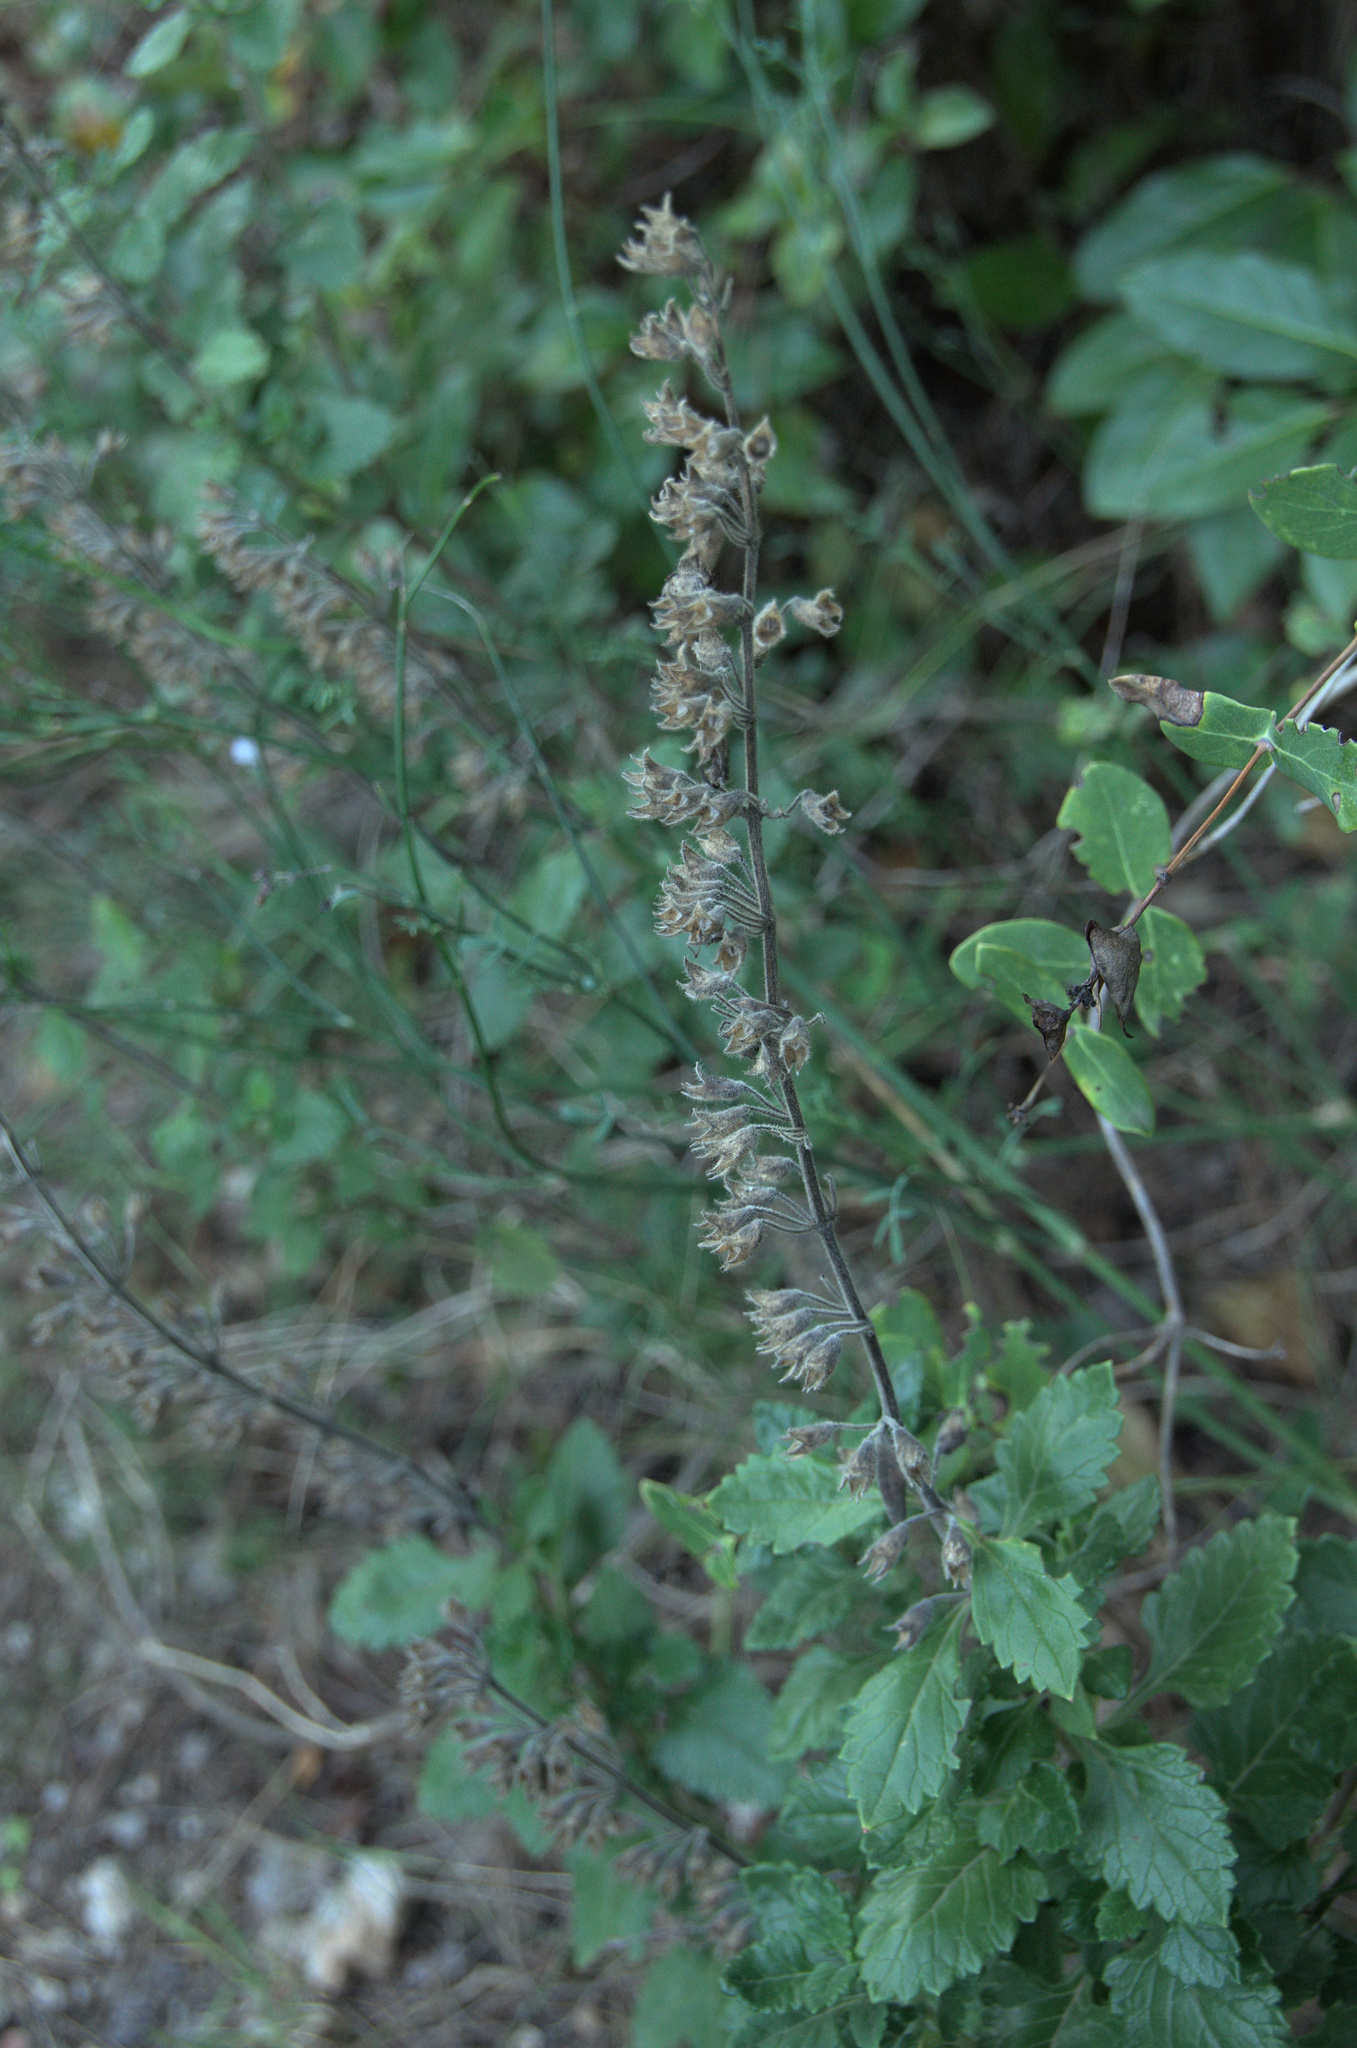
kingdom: Plantae
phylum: Tracheophyta
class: Magnoliopsida
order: Lamiales
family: Lamiaceae
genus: Teucrium
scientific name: Teucrium chamaedrys
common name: Wall germander
